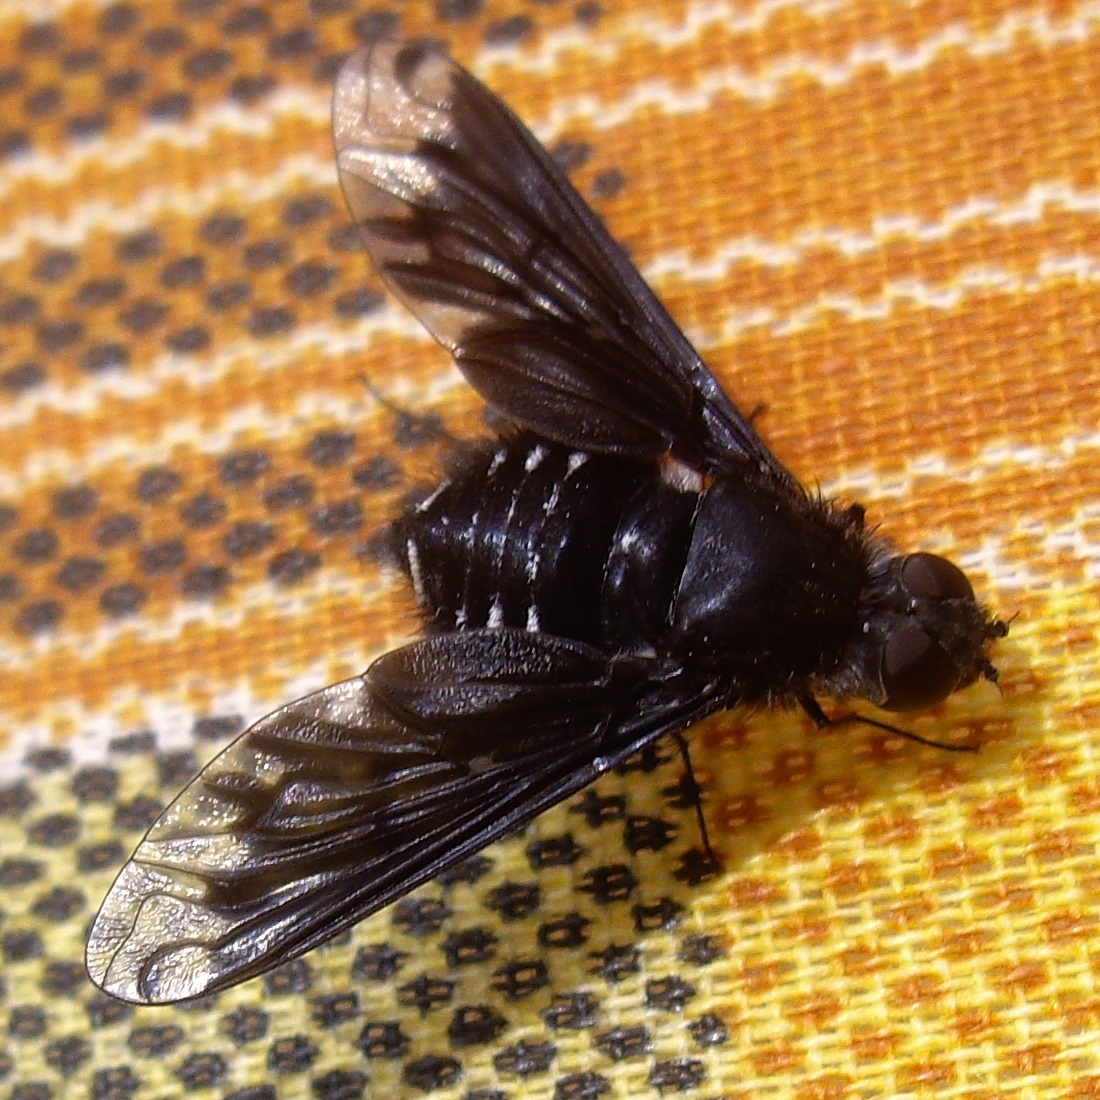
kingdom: Animalia
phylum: Arthropoda
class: Insecta
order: Diptera
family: Bombyliidae
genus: Anthrax
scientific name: Anthrax anthrax
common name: Anthracite bee-fly
